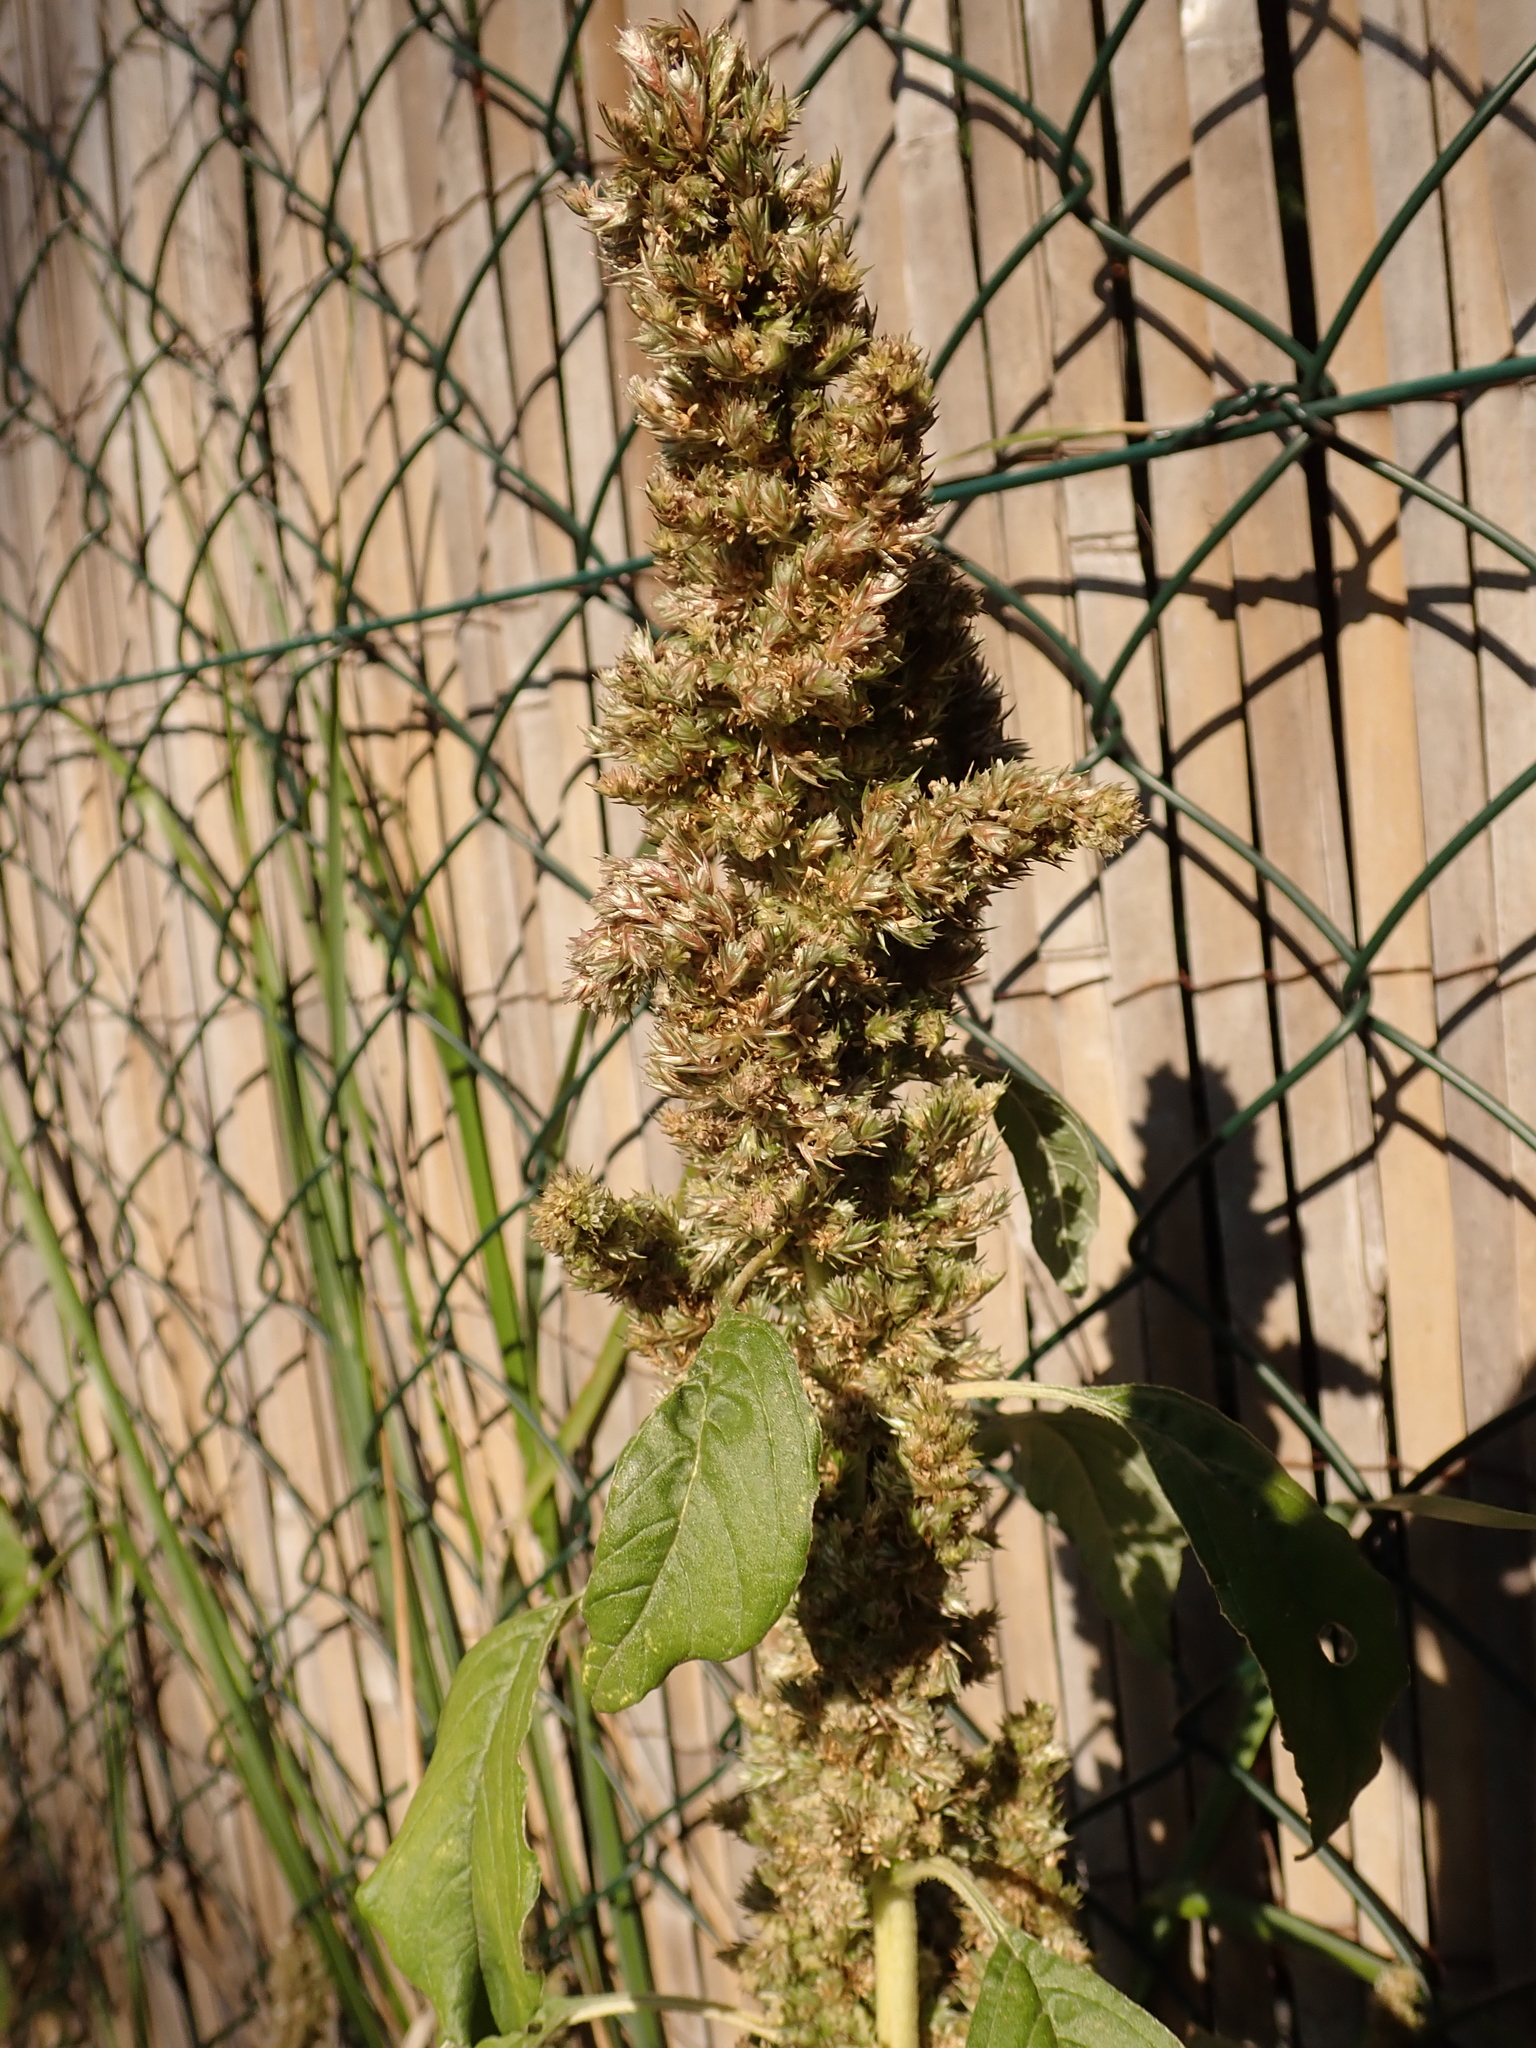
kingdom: Plantae
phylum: Tracheophyta
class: Magnoliopsida
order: Caryophyllales
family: Amaranthaceae
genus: Amaranthus
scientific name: Amaranthus retroflexus
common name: Redroot amaranth
